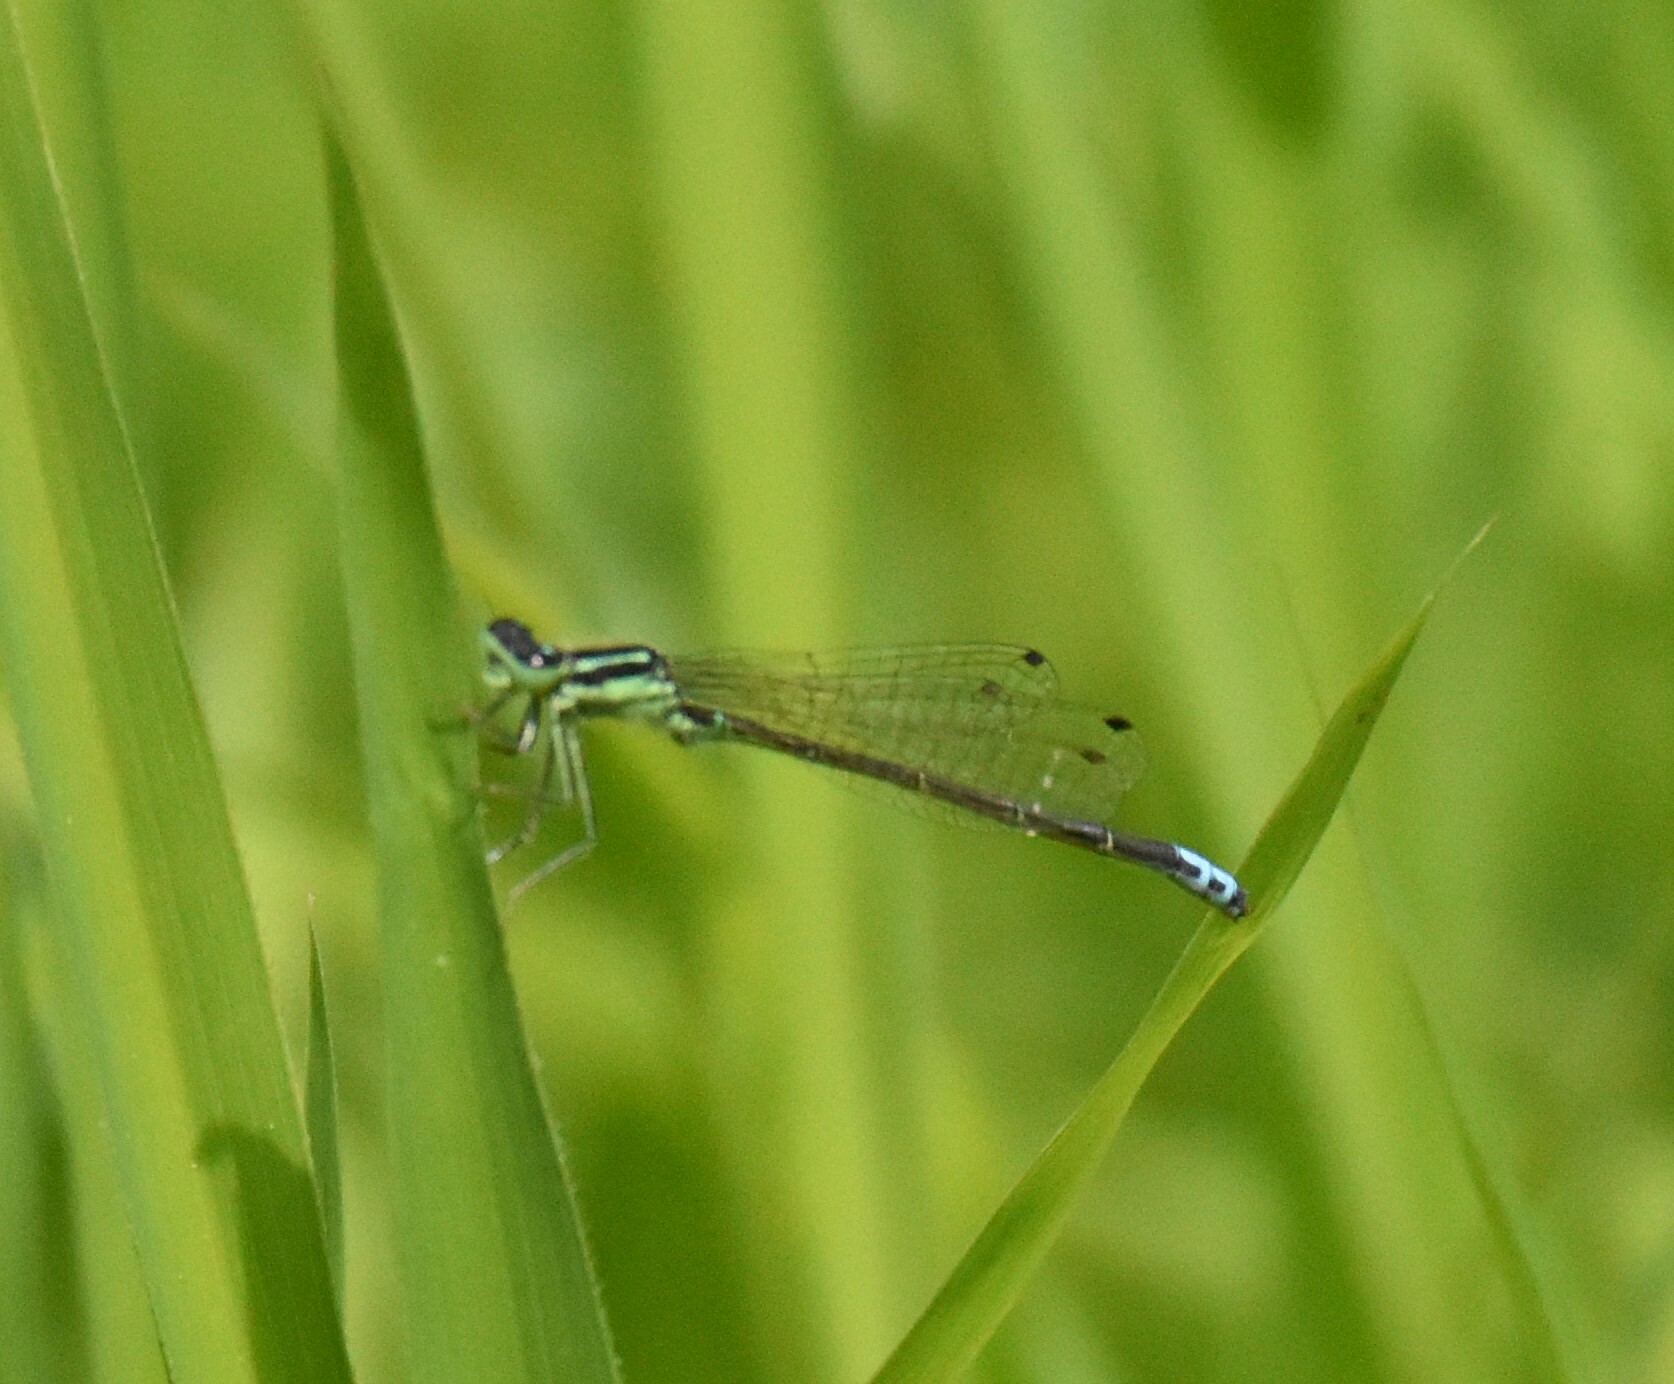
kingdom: Animalia
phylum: Arthropoda
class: Insecta
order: Odonata
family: Coenagrionidae
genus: Ischnura
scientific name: Ischnura verticalis
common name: Eastern forktail
